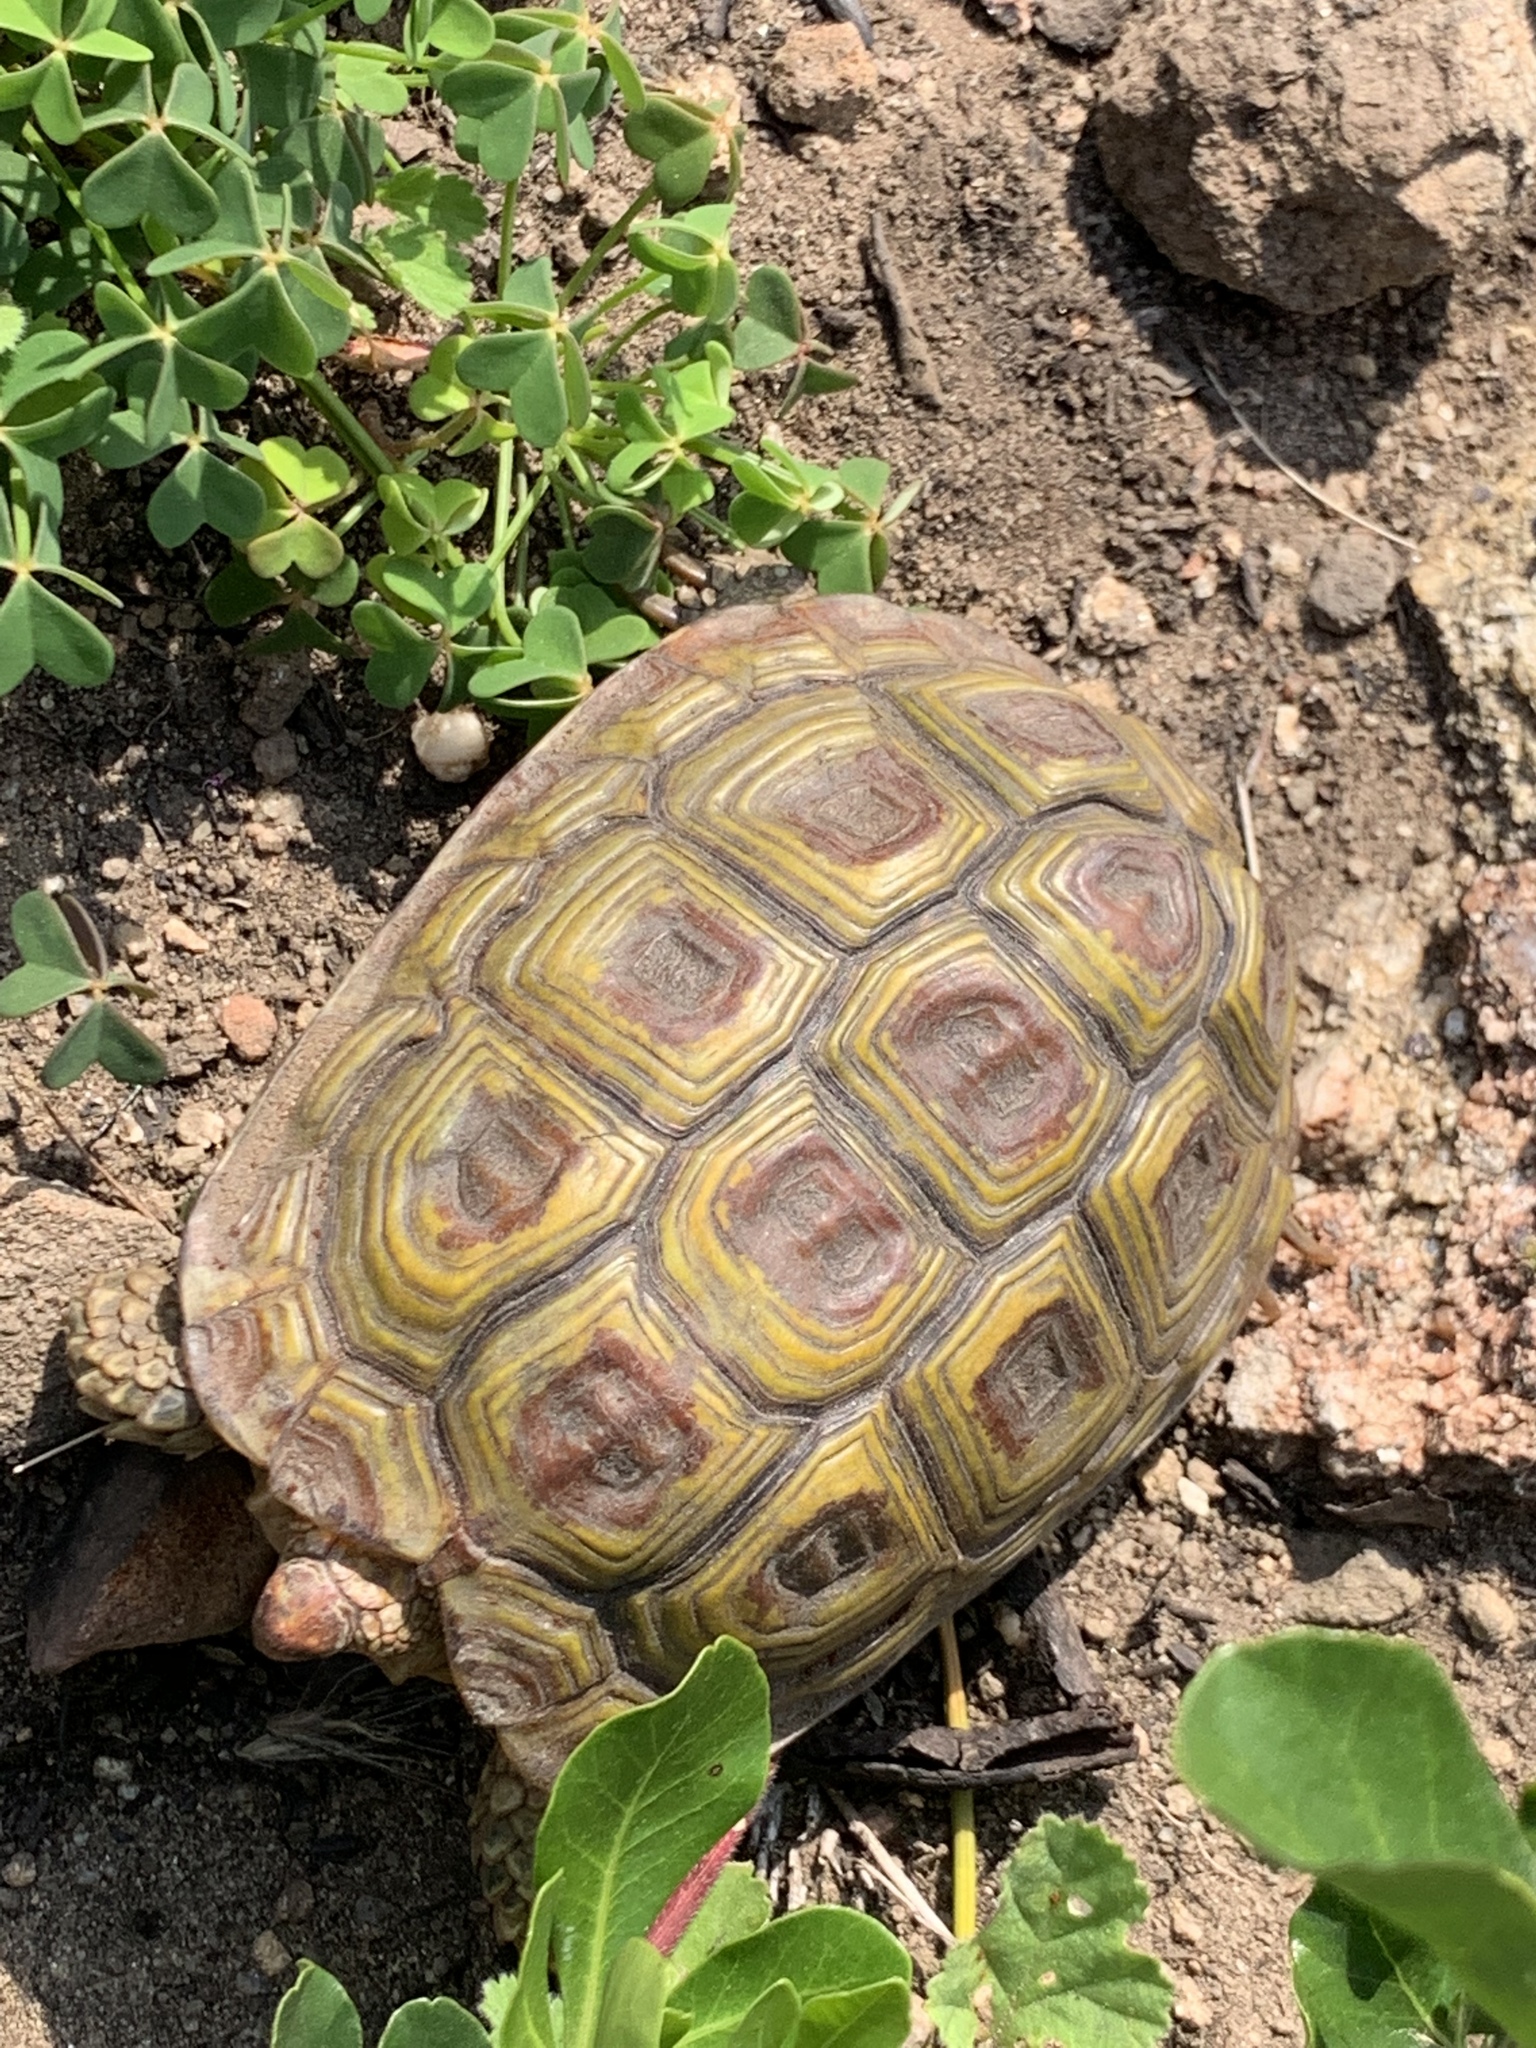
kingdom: Animalia
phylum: Chordata
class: Testudines
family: Testudinidae
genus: Homopus
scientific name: Homopus areolatus
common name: Parrot-beaked tortoise
